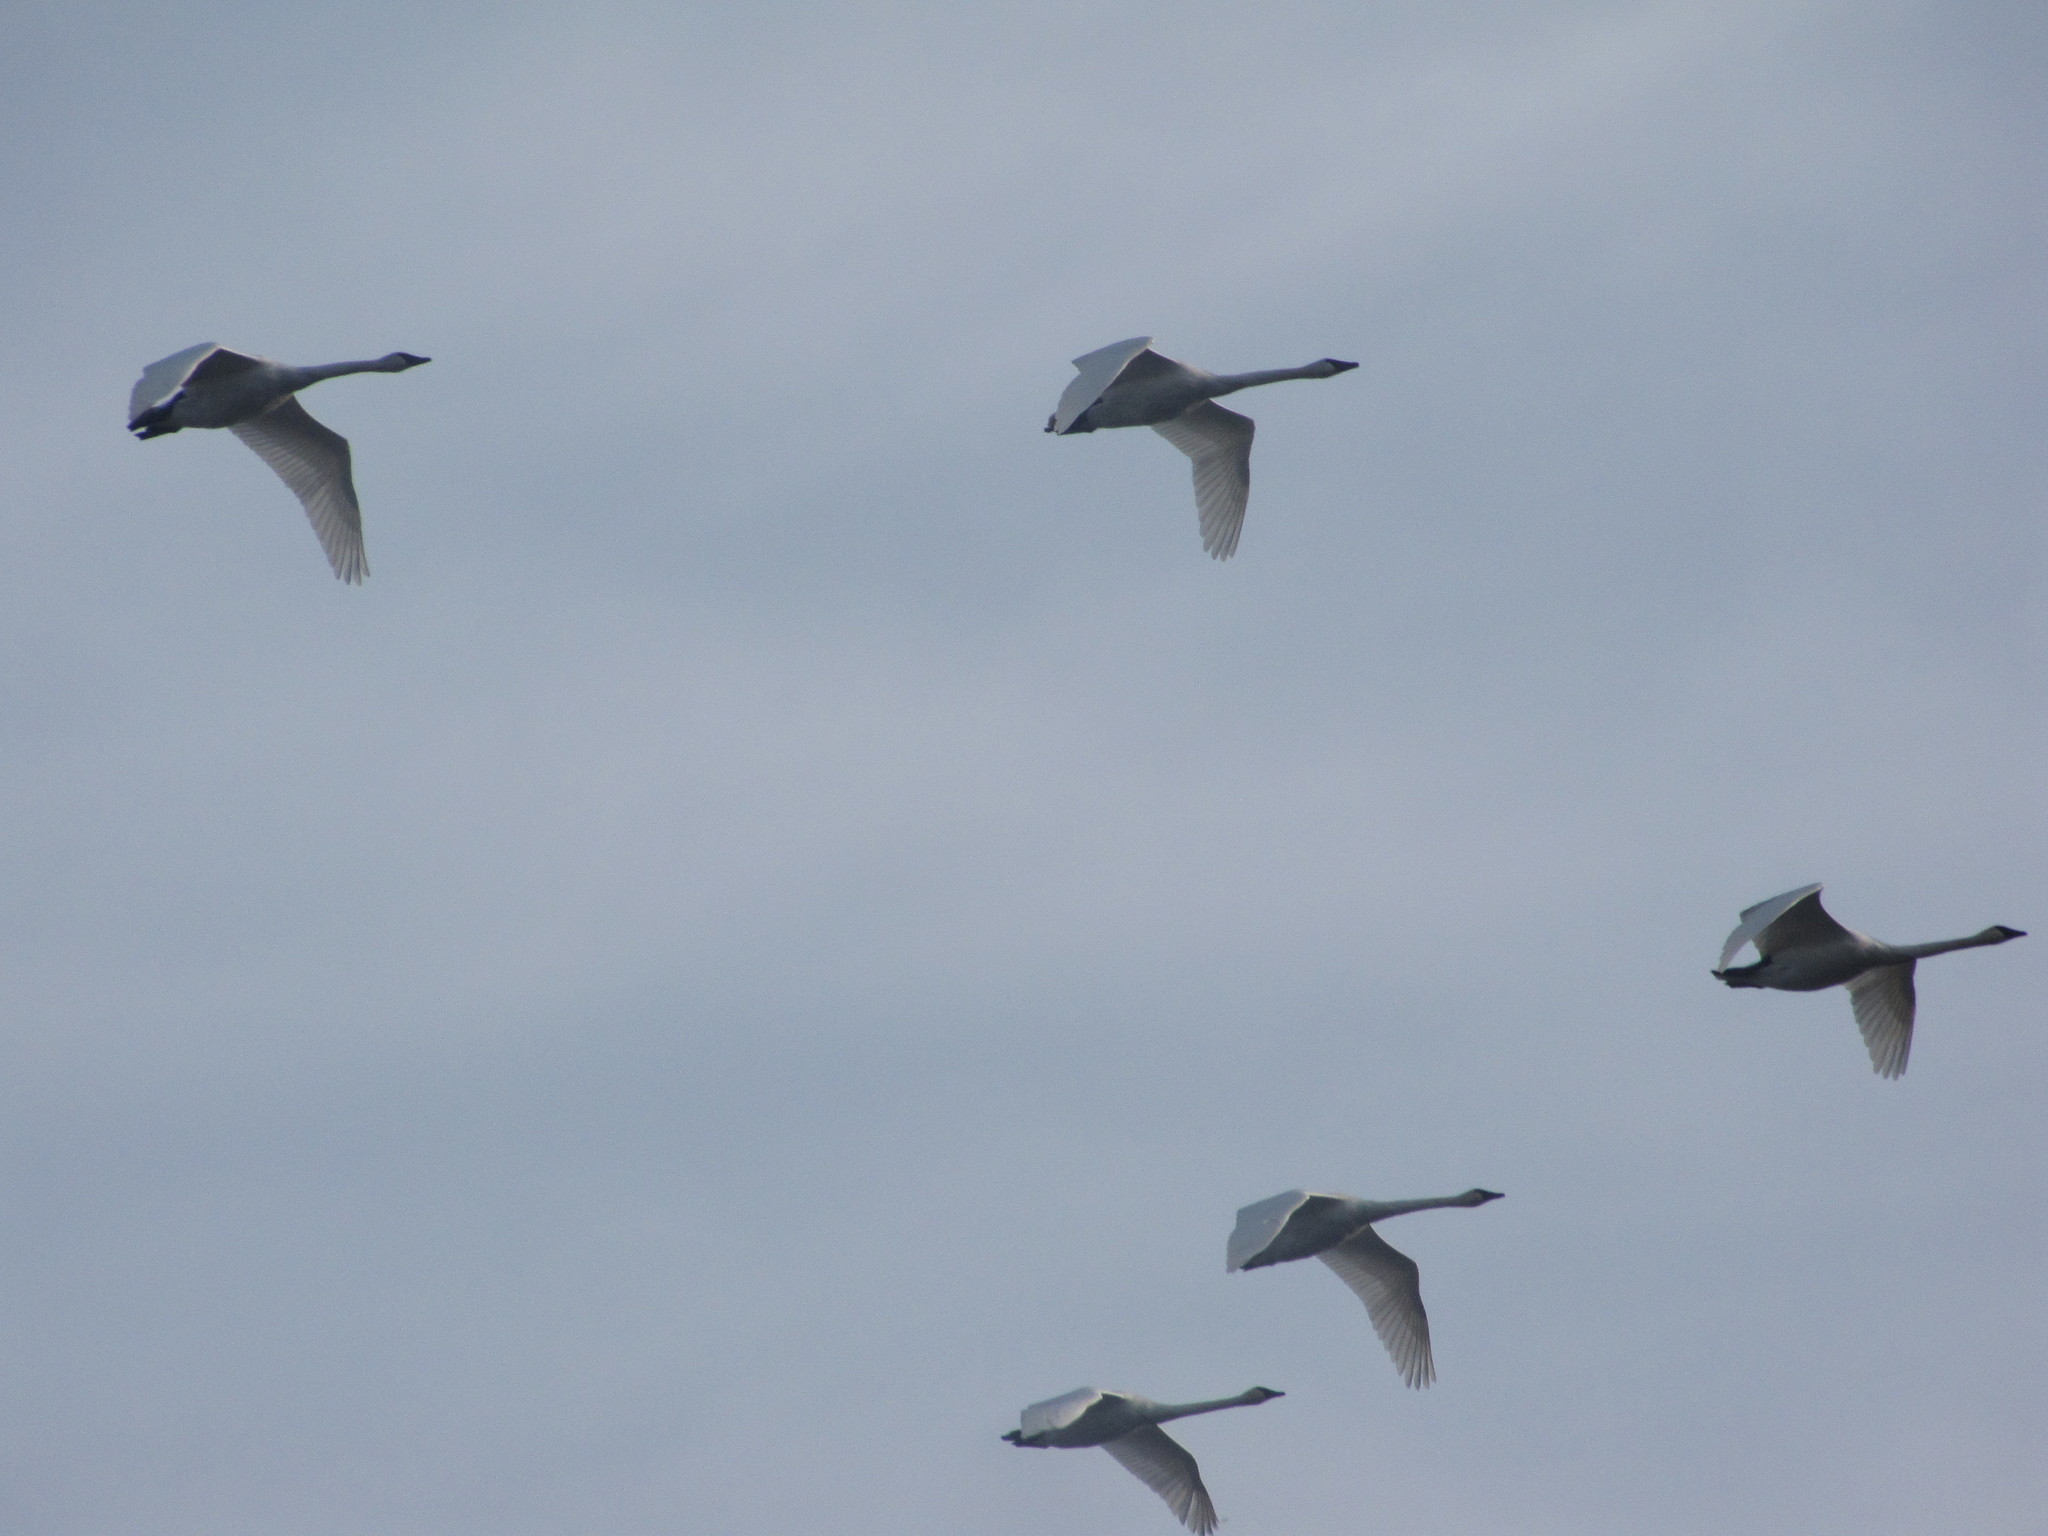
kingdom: Animalia
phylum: Chordata
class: Aves
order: Anseriformes
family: Anatidae
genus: Cygnus
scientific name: Cygnus buccinator
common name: Trumpeter swan
